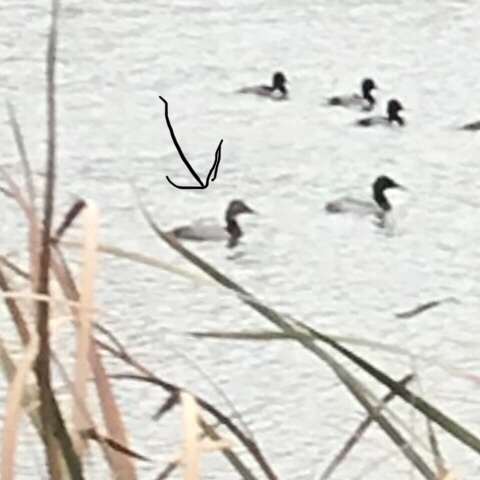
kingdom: Animalia
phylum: Chordata
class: Aves
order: Anseriformes
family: Anatidae
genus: Aythya
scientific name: Aythya valisineria
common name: Canvasback
